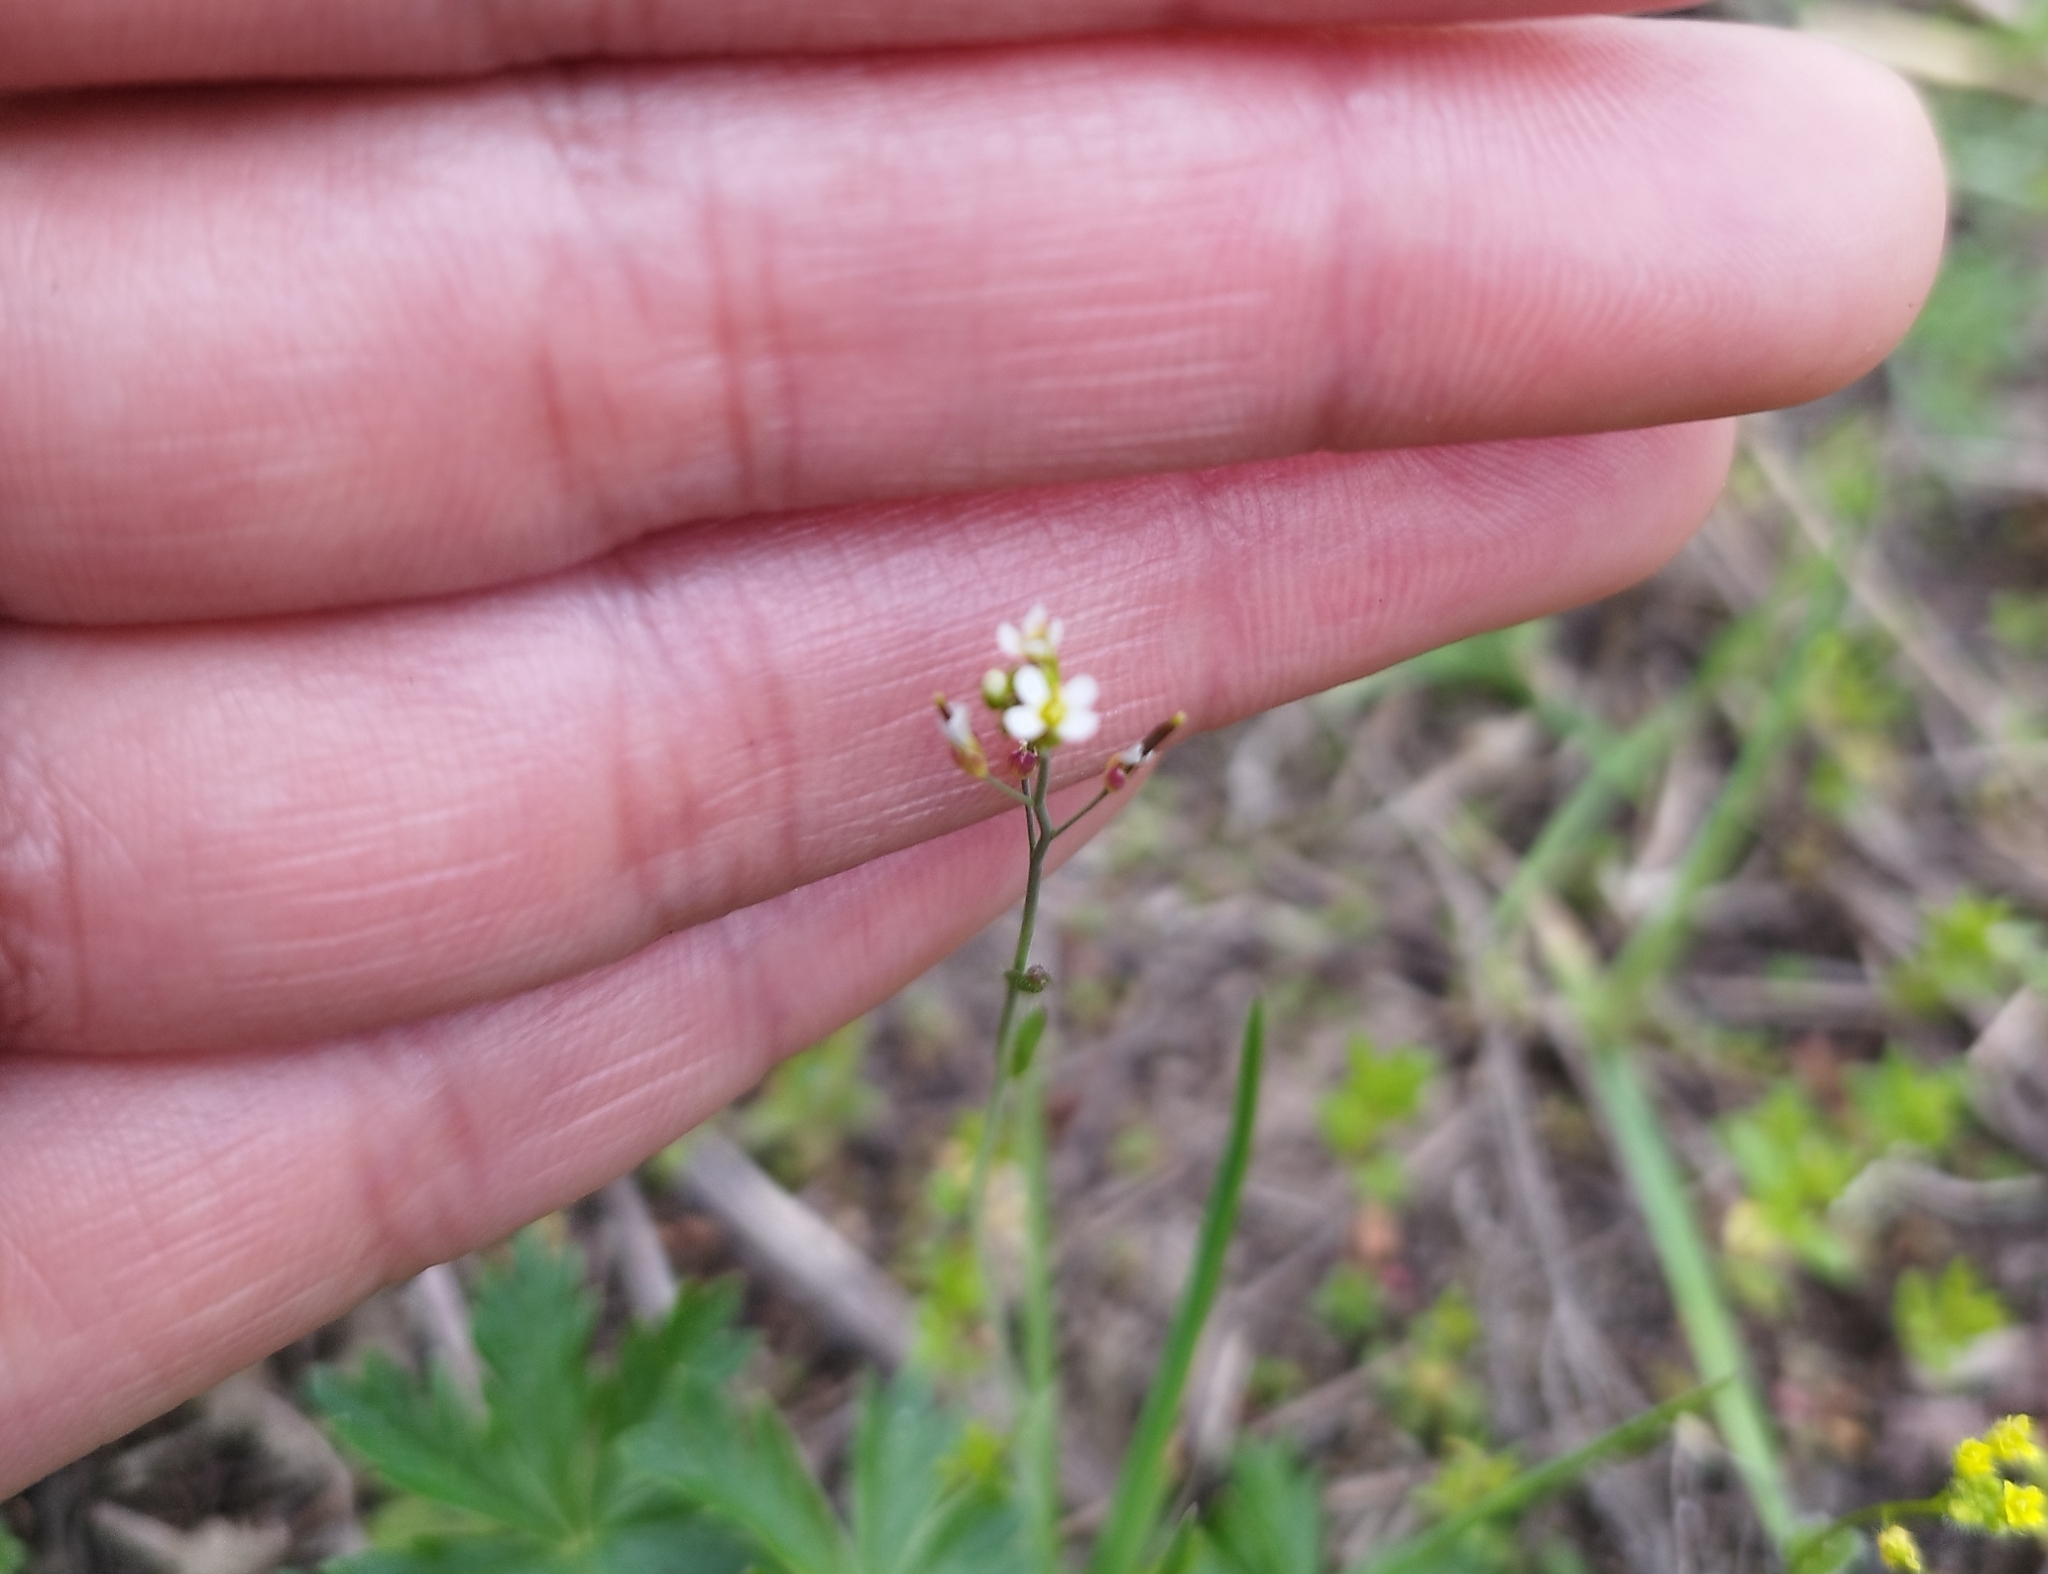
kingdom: Plantae
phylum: Tracheophyta
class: Magnoliopsida
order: Brassicales
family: Brassicaceae
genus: Arabidopsis
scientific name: Arabidopsis thaliana
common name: Thale cress
